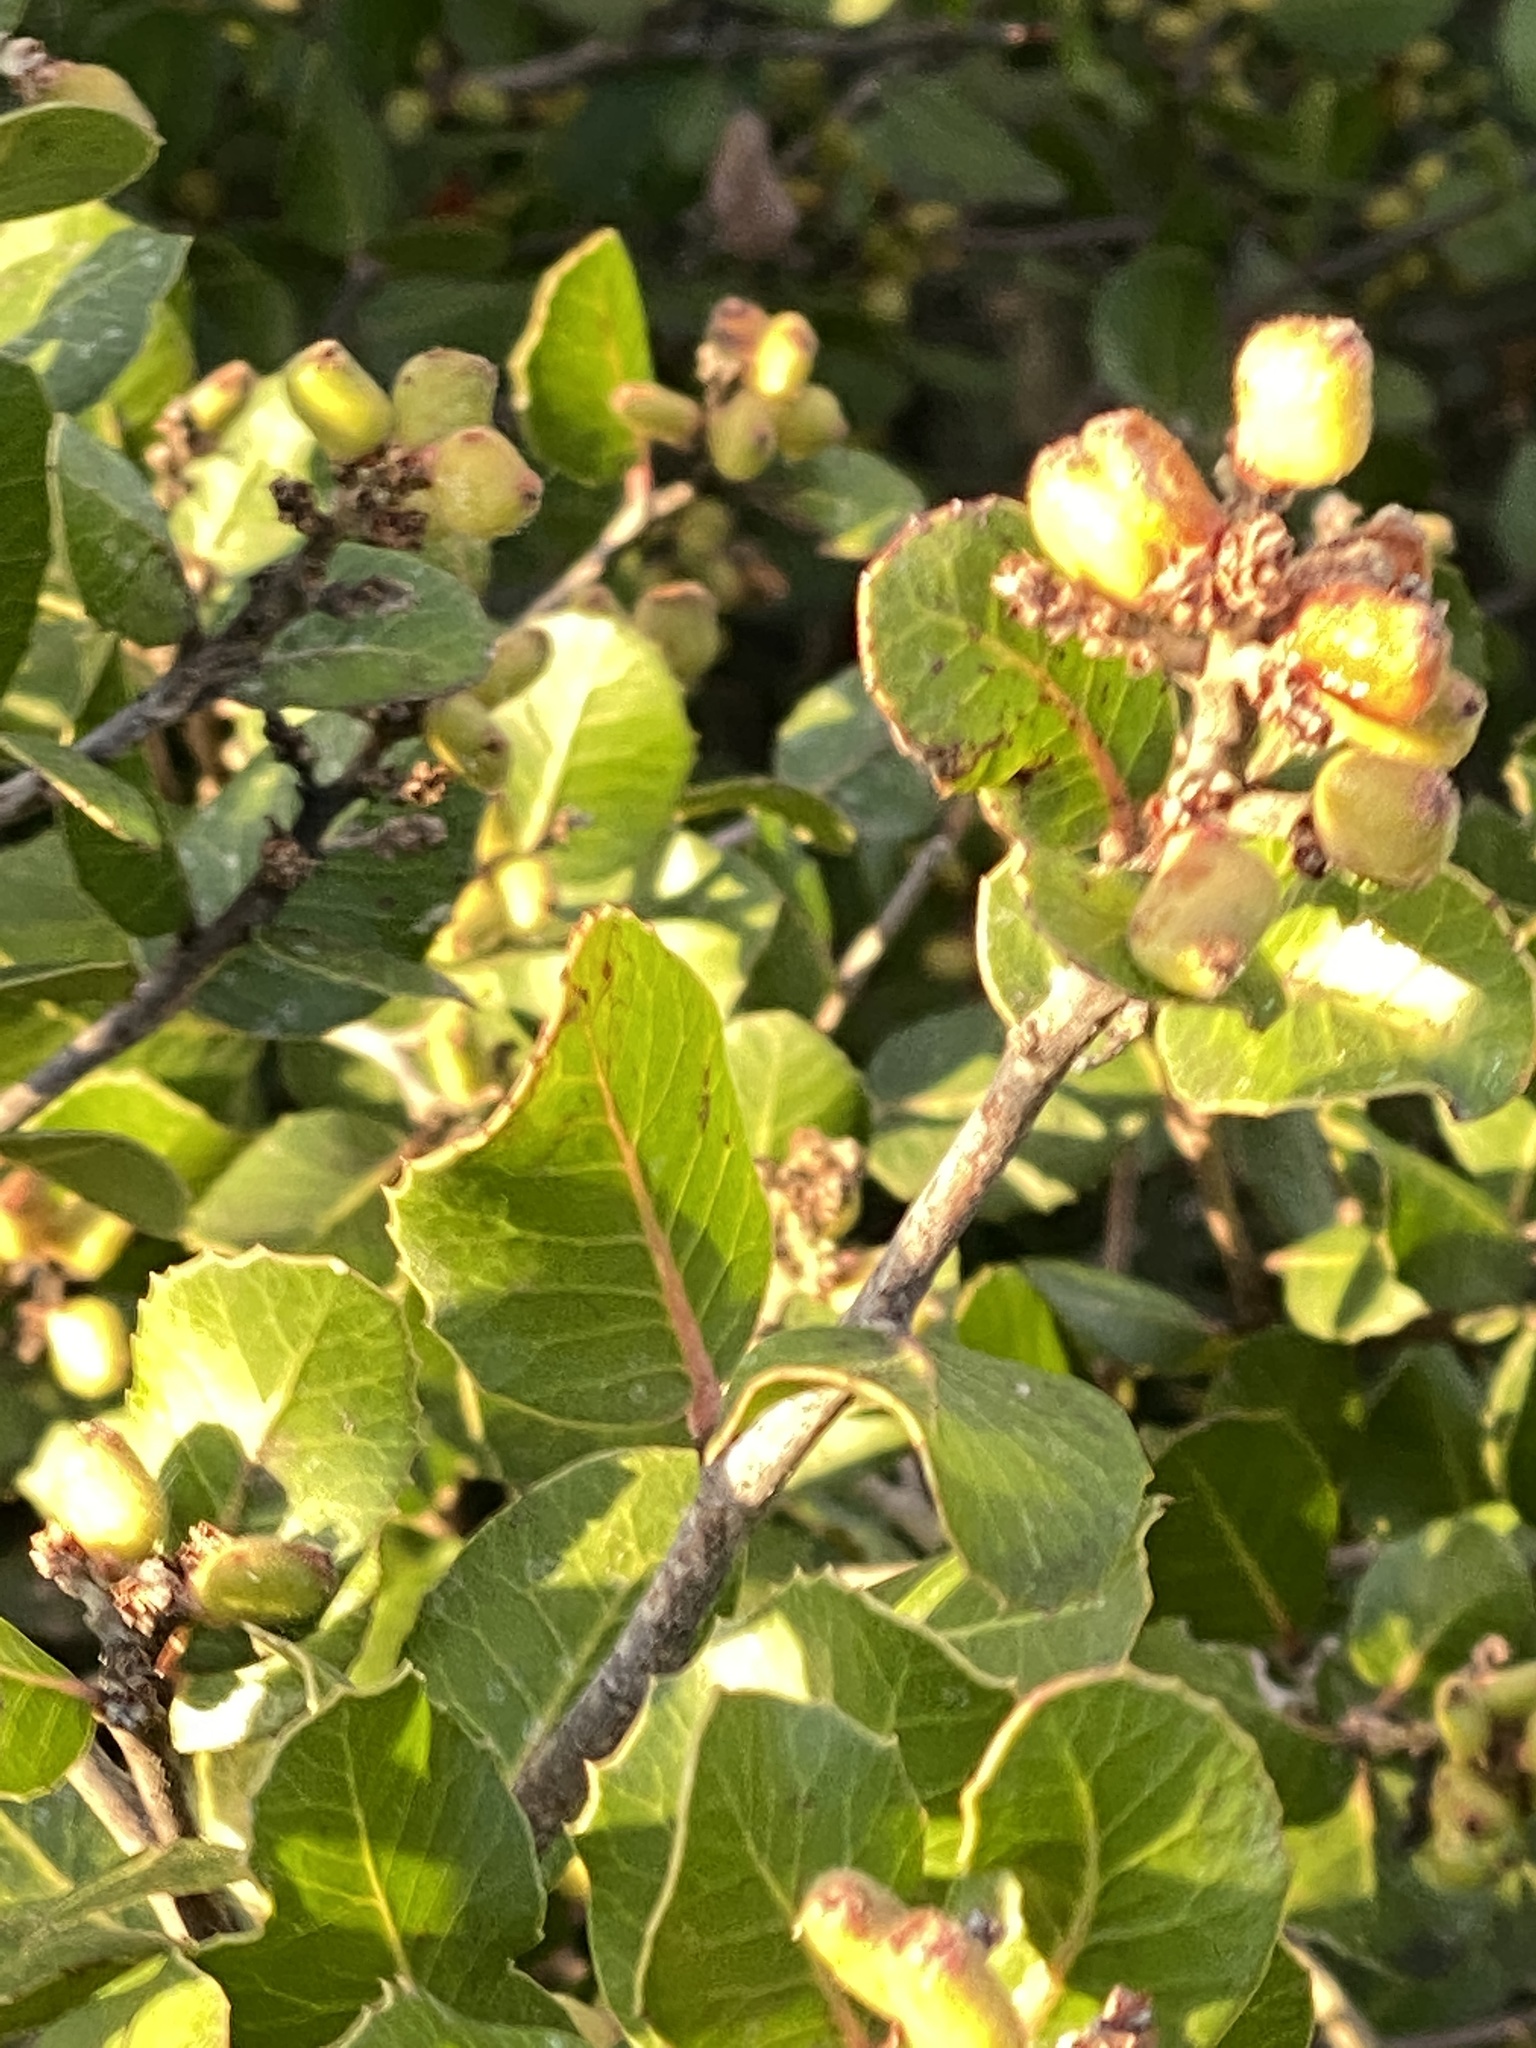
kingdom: Plantae
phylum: Tracheophyta
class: Magnoliopsida
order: Sapindales
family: Anacardiaceae
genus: Rhus
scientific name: Rhus integrifolia
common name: Lemonade sumac
